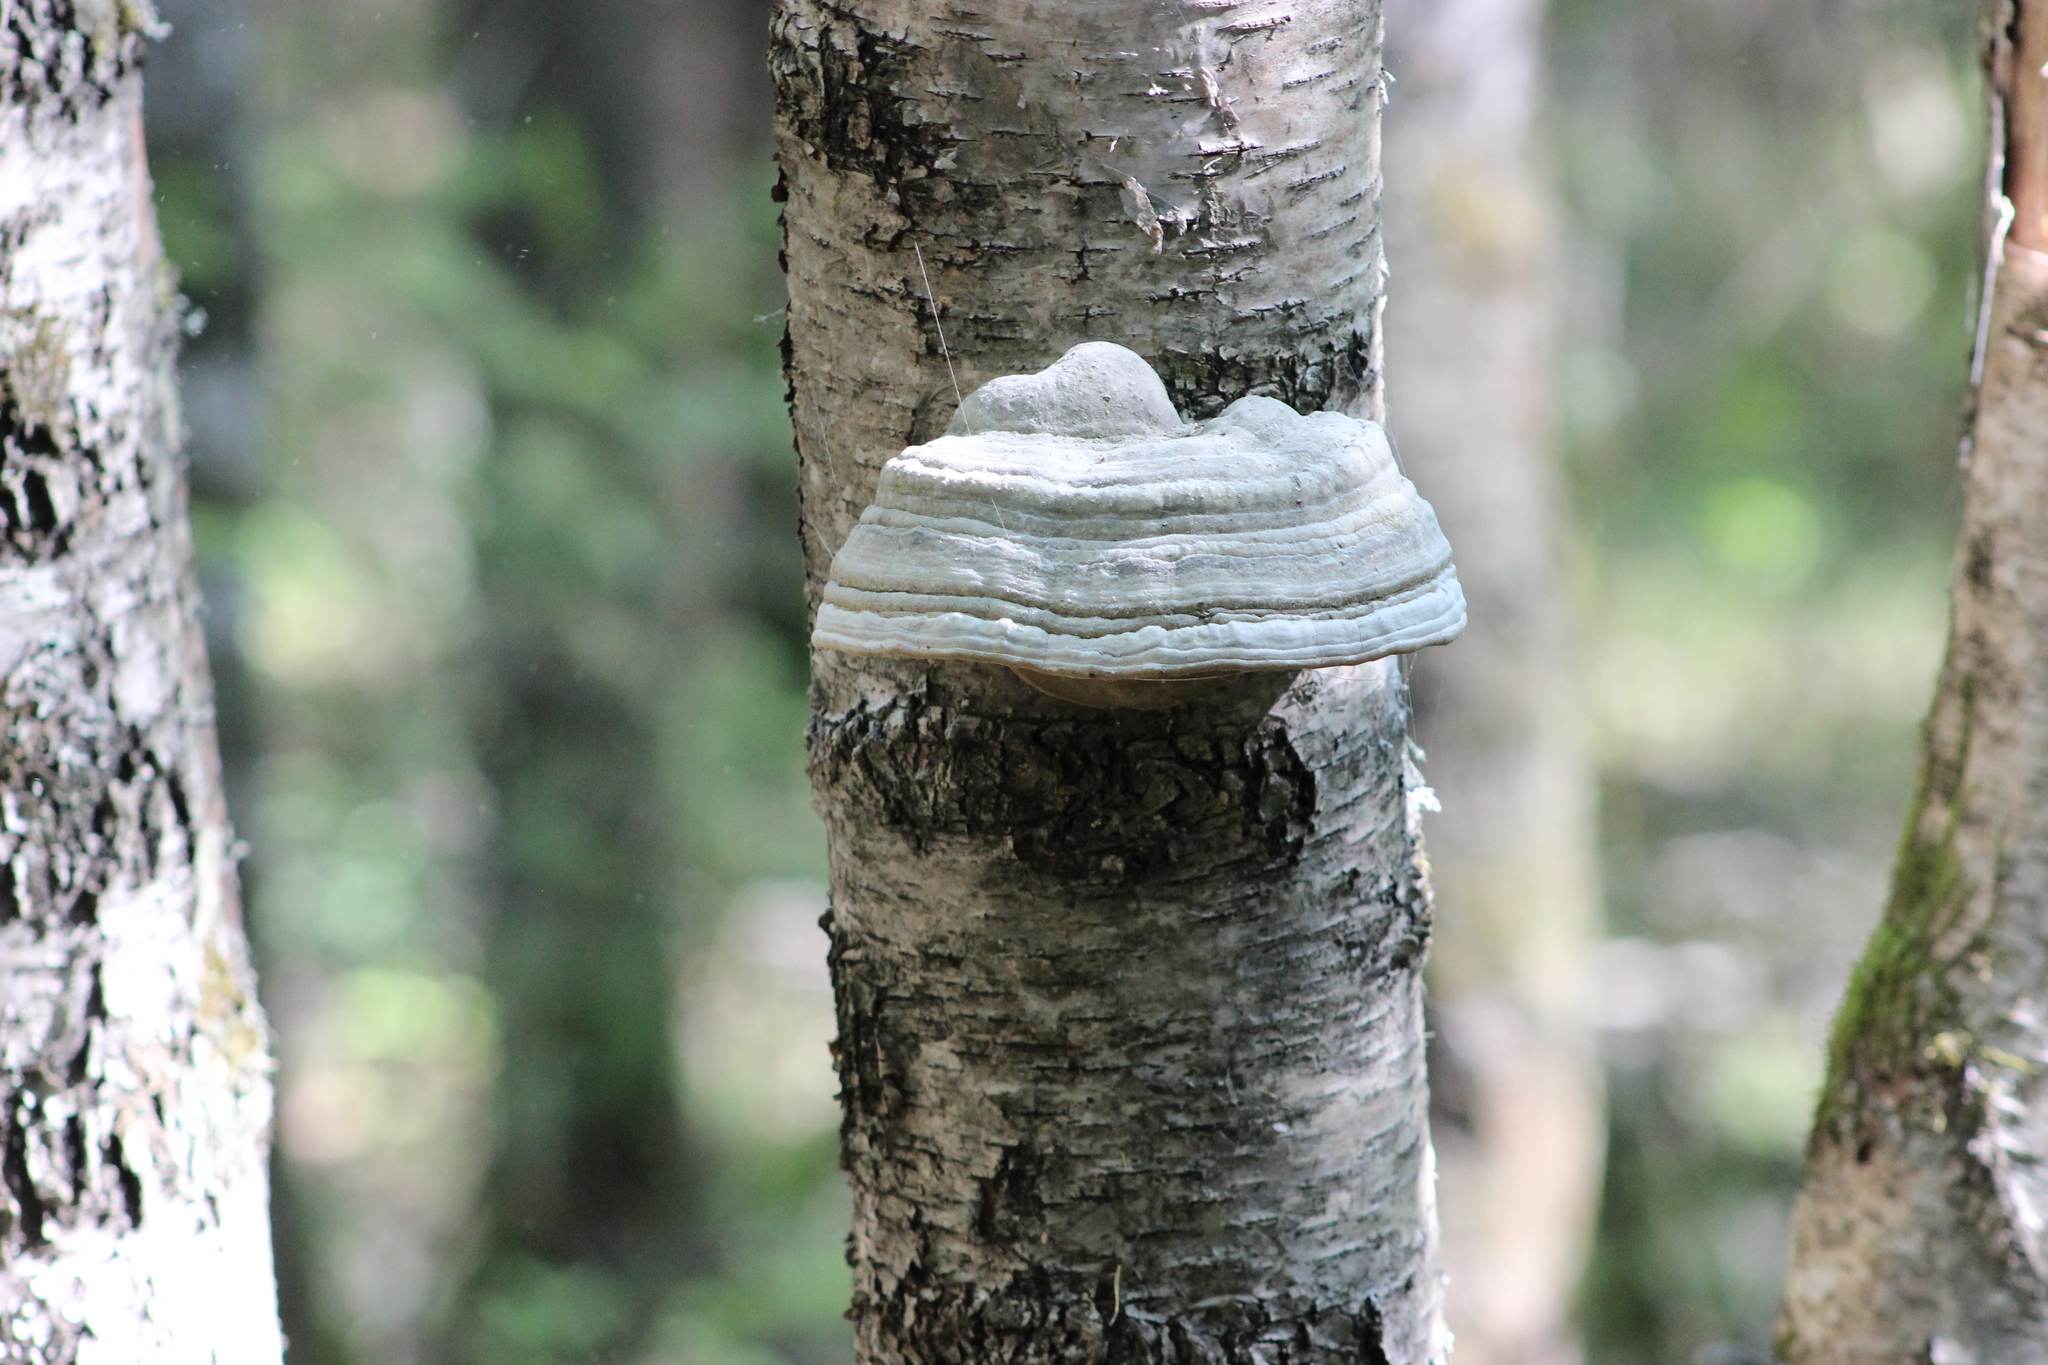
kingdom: Fungi
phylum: Basidiomycota
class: Agaricomycetes
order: Polyporales
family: Polyporaceae
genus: Fomes
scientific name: Fomes fomentarius
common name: Hoof fungus
